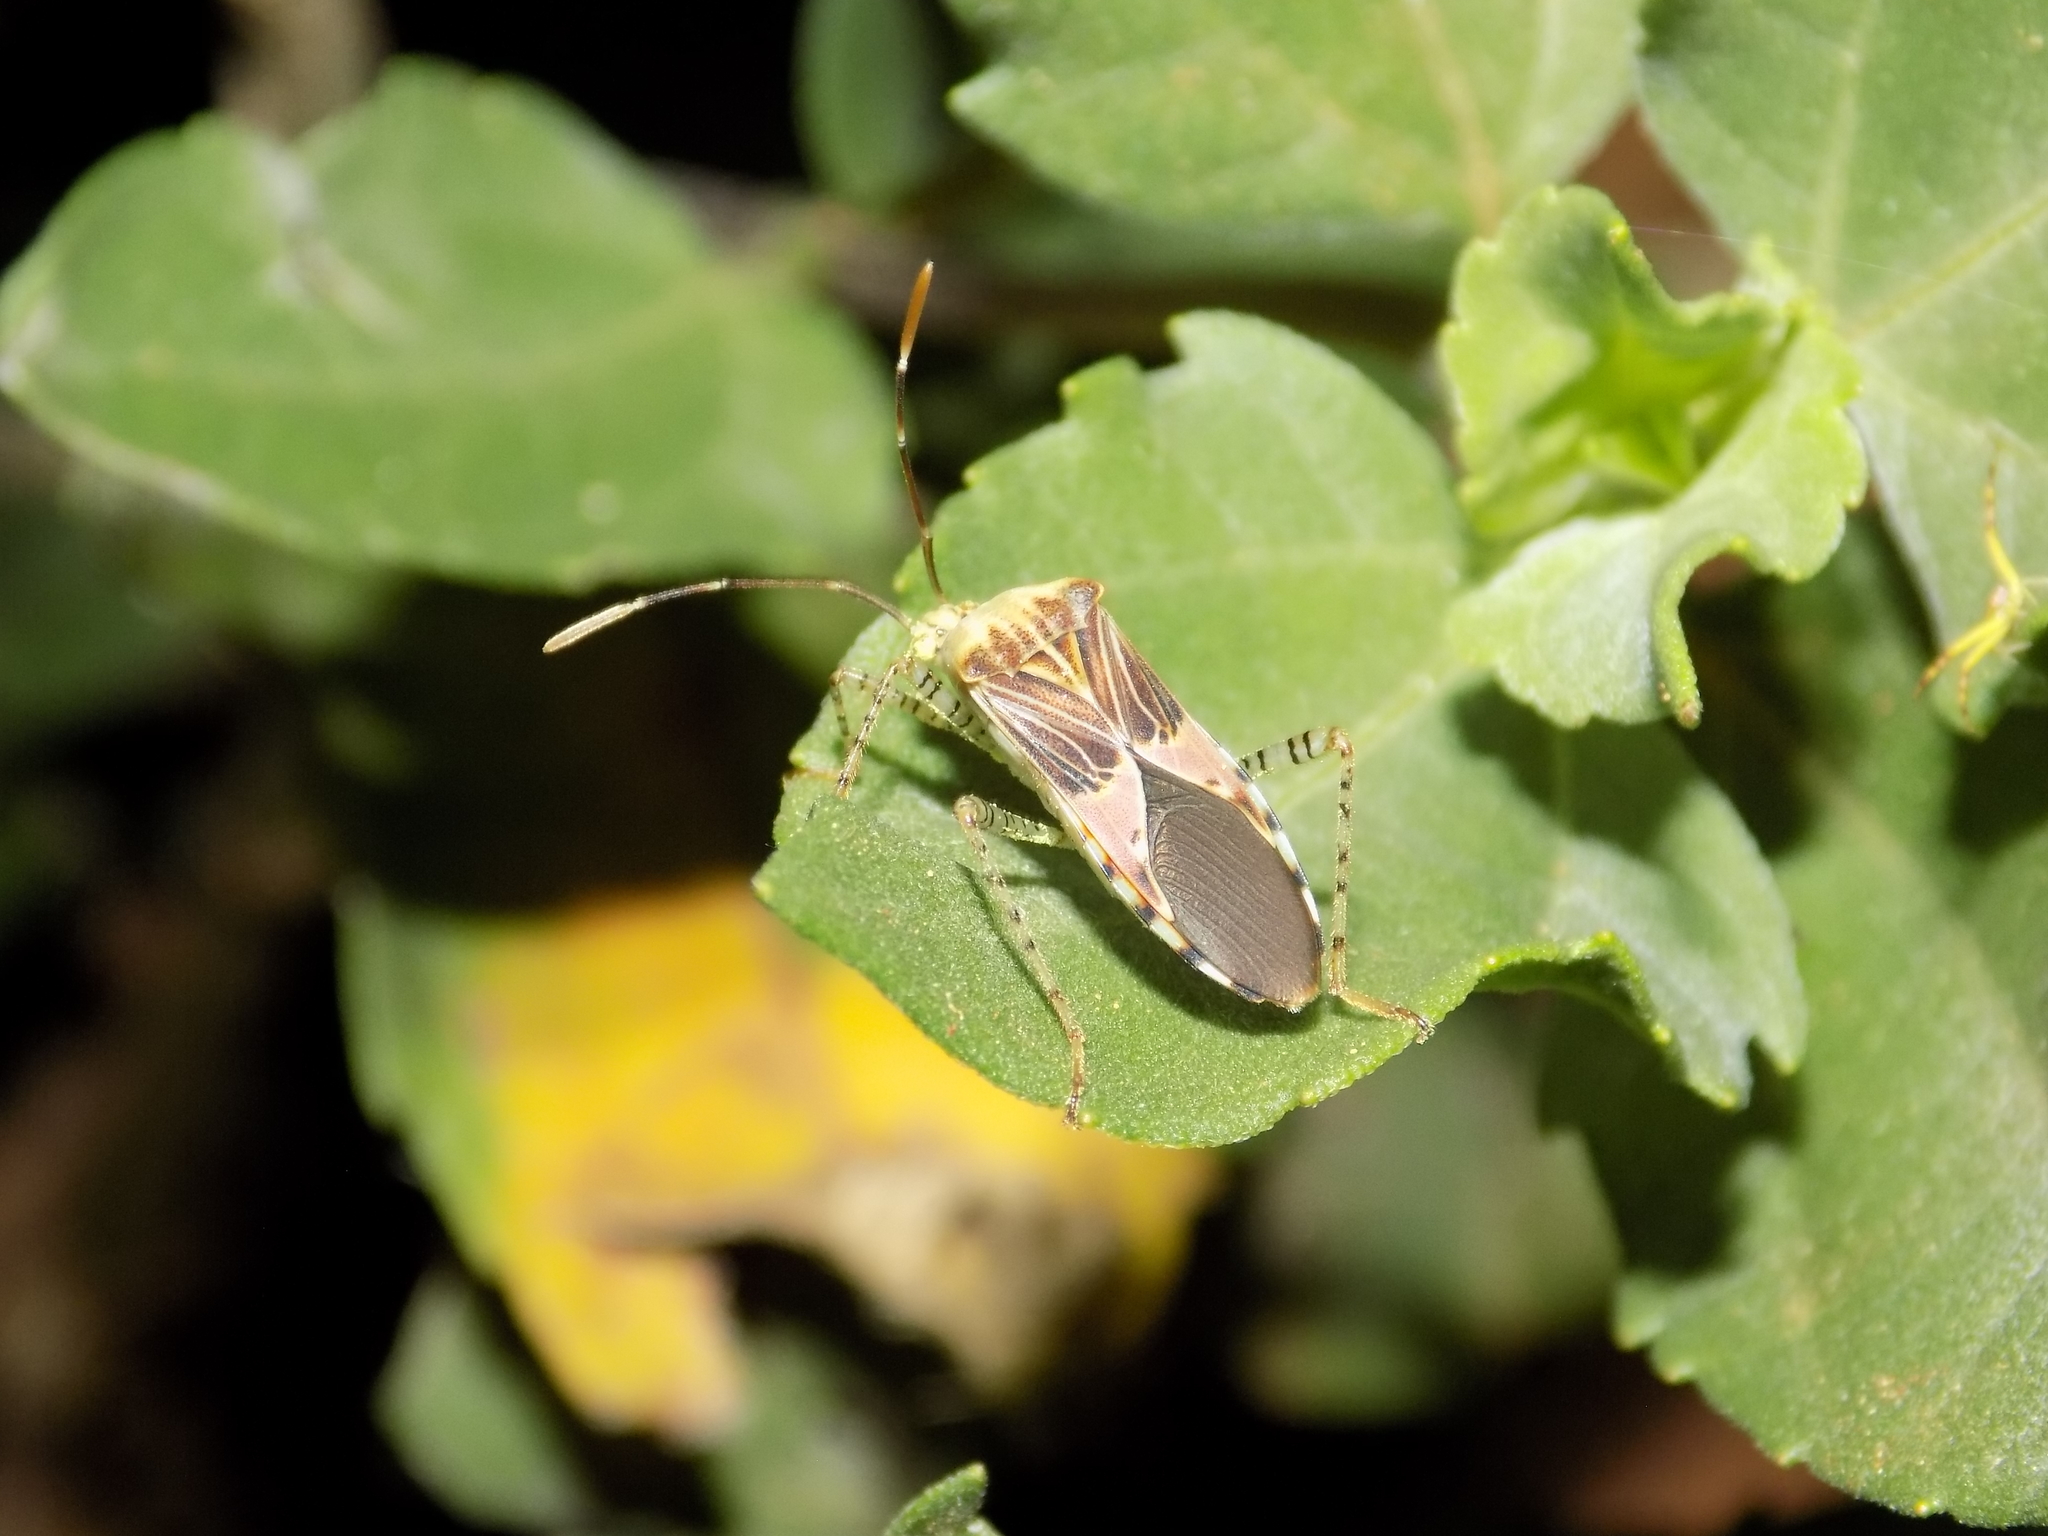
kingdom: Animalia
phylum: Arthropoda
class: Insecta
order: Hemiptera
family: Coreidae
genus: Hypselonotus
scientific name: Hypselonotus punctiventris
